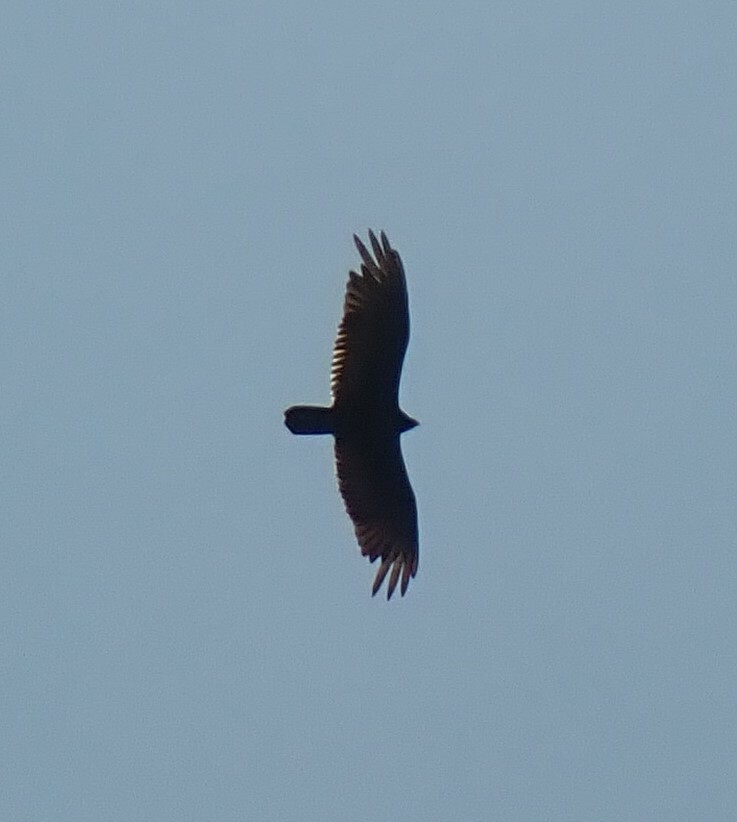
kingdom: Animalia
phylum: Chordata
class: Aves
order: Accipitriformes
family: Cathartidae
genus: Cathartes
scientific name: Cathartes aura
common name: Turkey vulture
